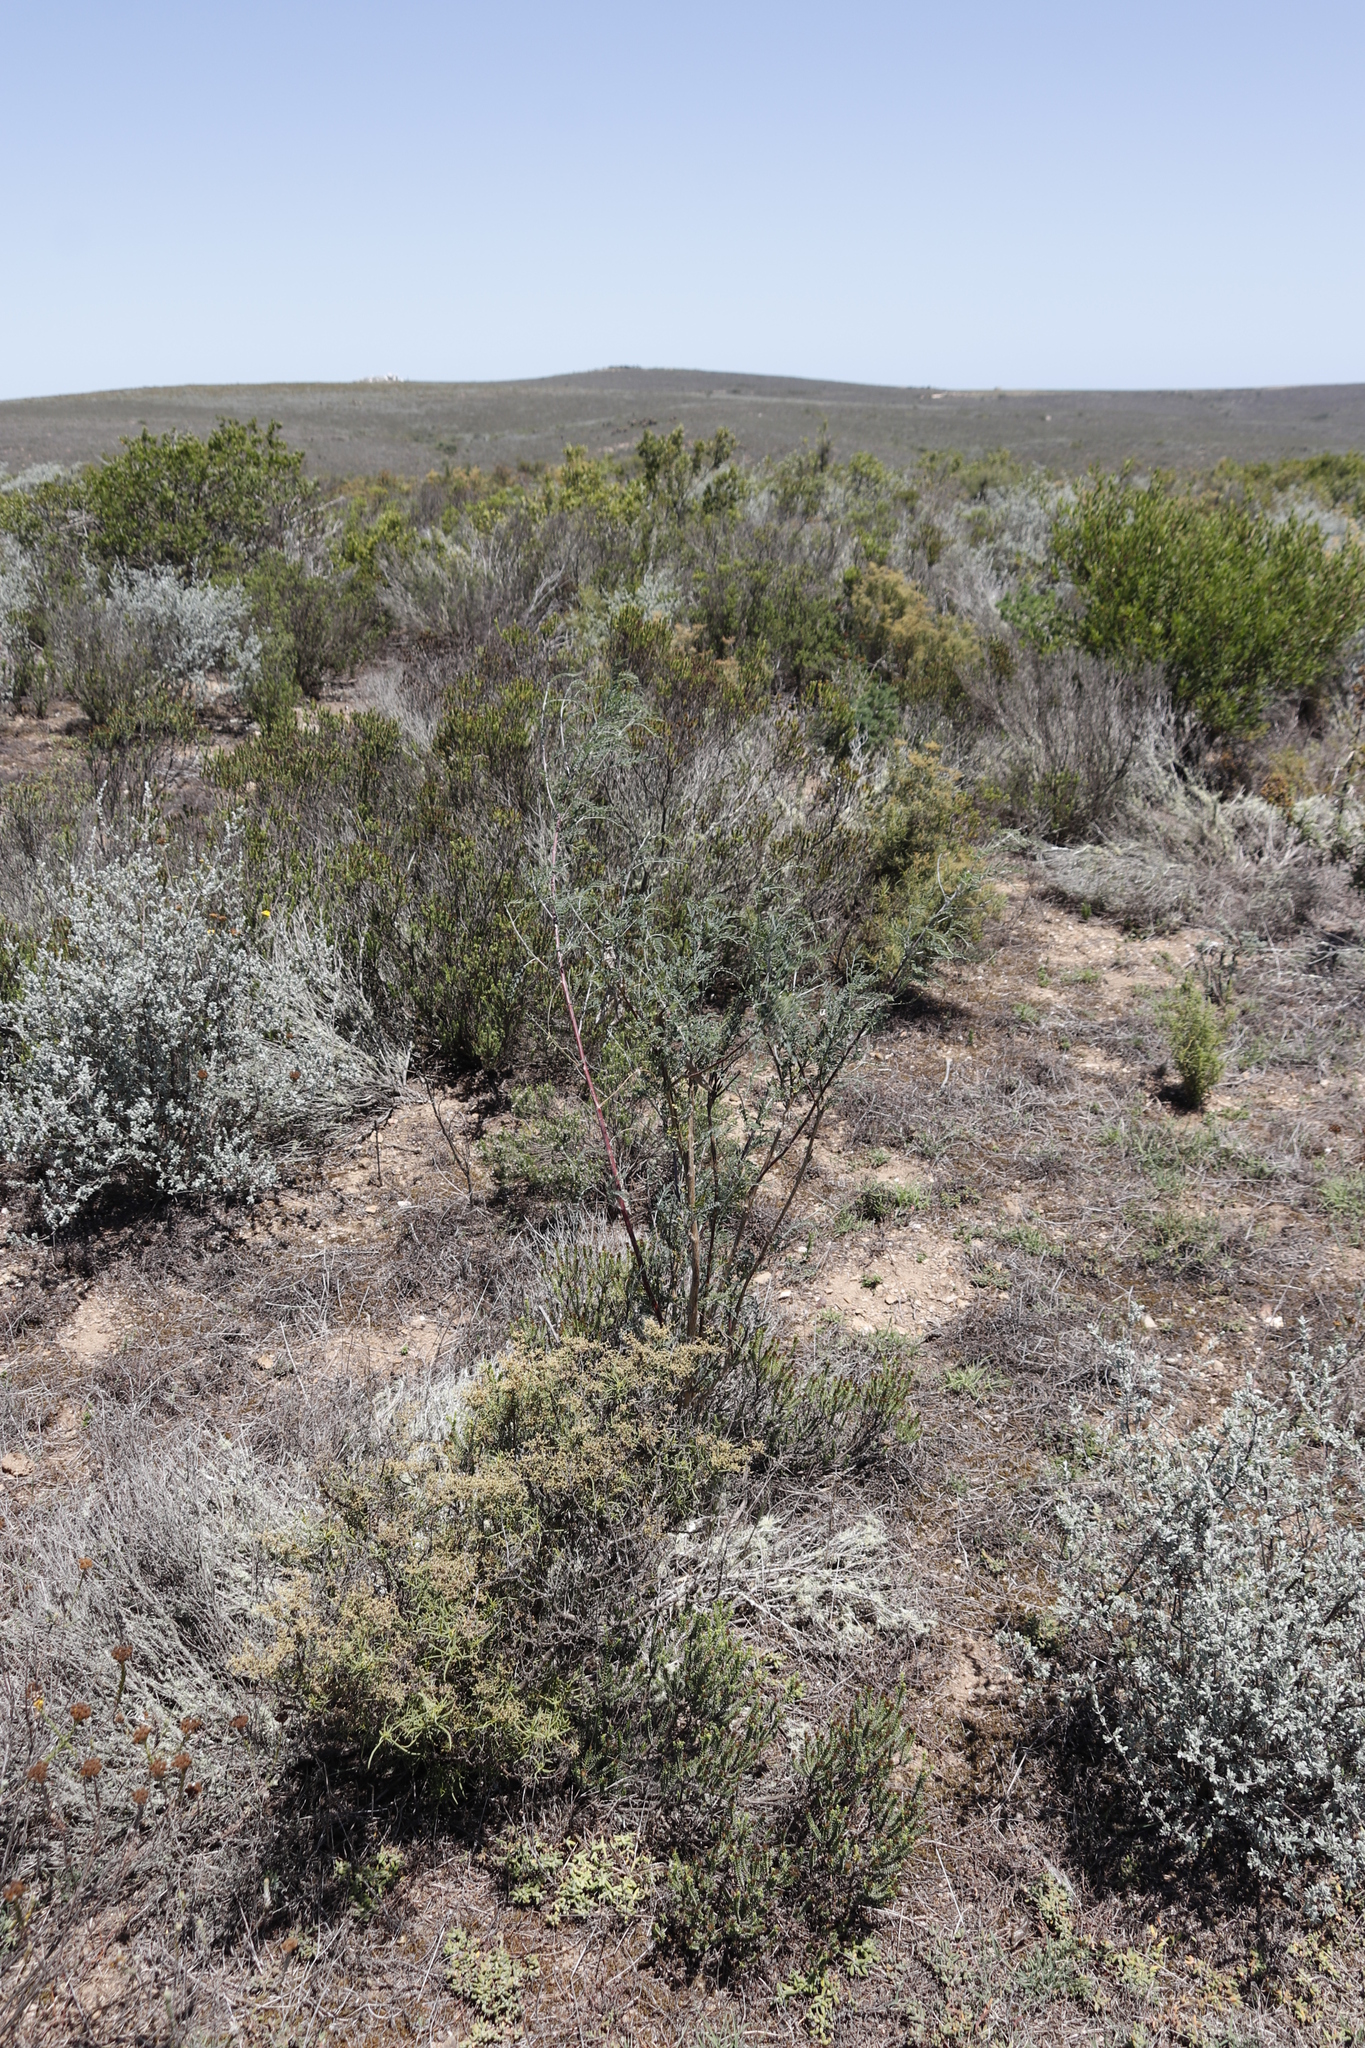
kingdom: Plantae
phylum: Tracheophyta
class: Magnoliopsida
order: Fabales
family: Fabaceae
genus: Lessertia
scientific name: Lessertia frutescens
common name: Balloon-pea
